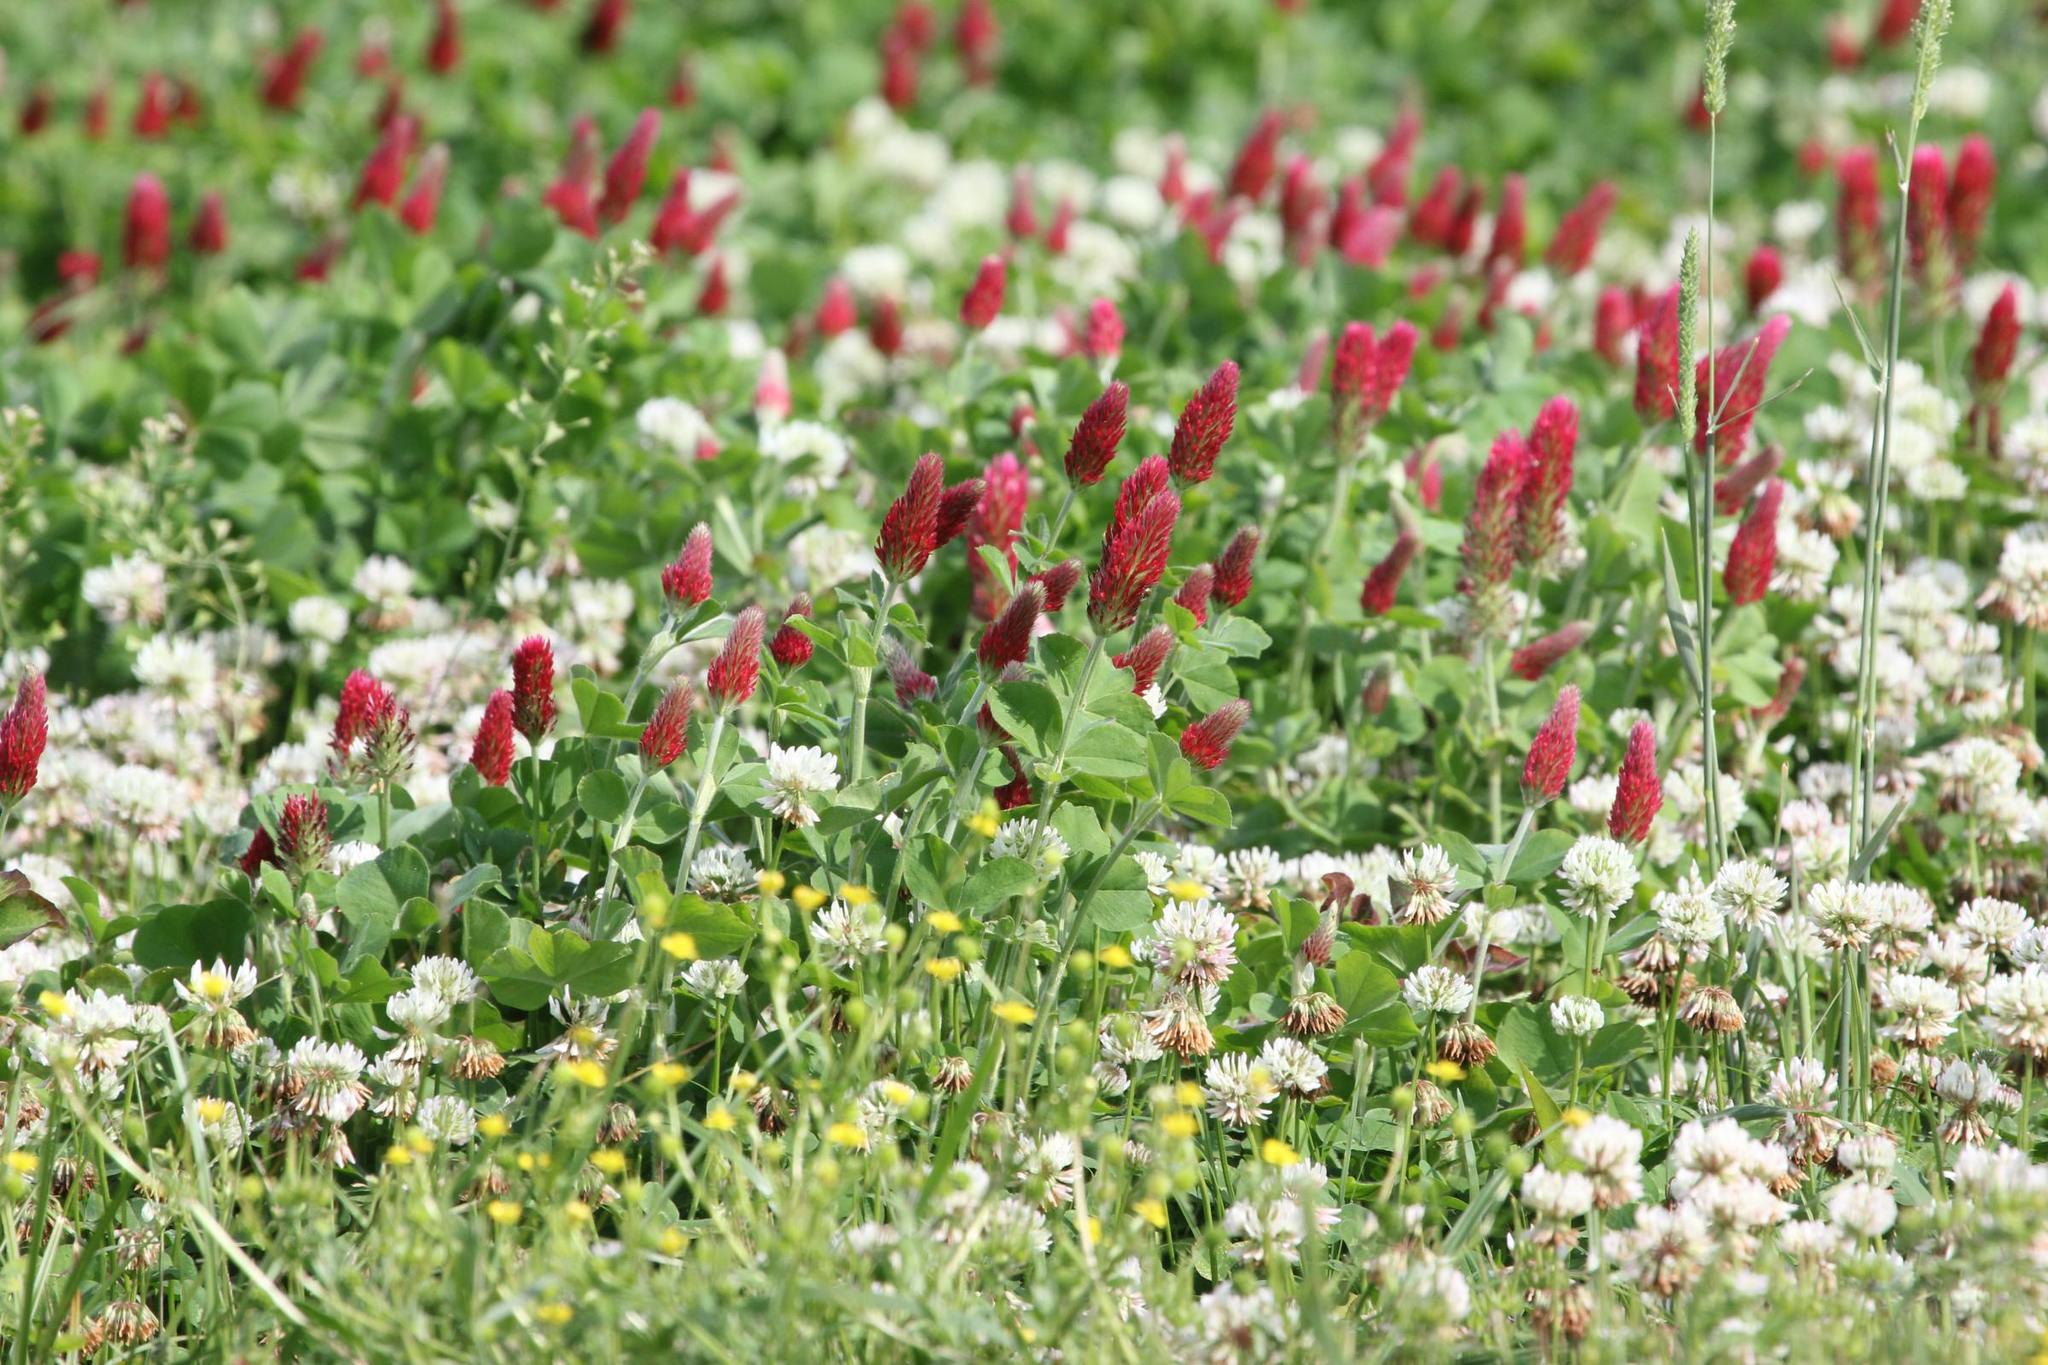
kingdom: Plantae
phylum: Tracheophyta
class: Magnoliopsida
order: Fabales
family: Fabaceae
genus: Trifolium
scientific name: Trifolium incarnatum
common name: Crimson clover
